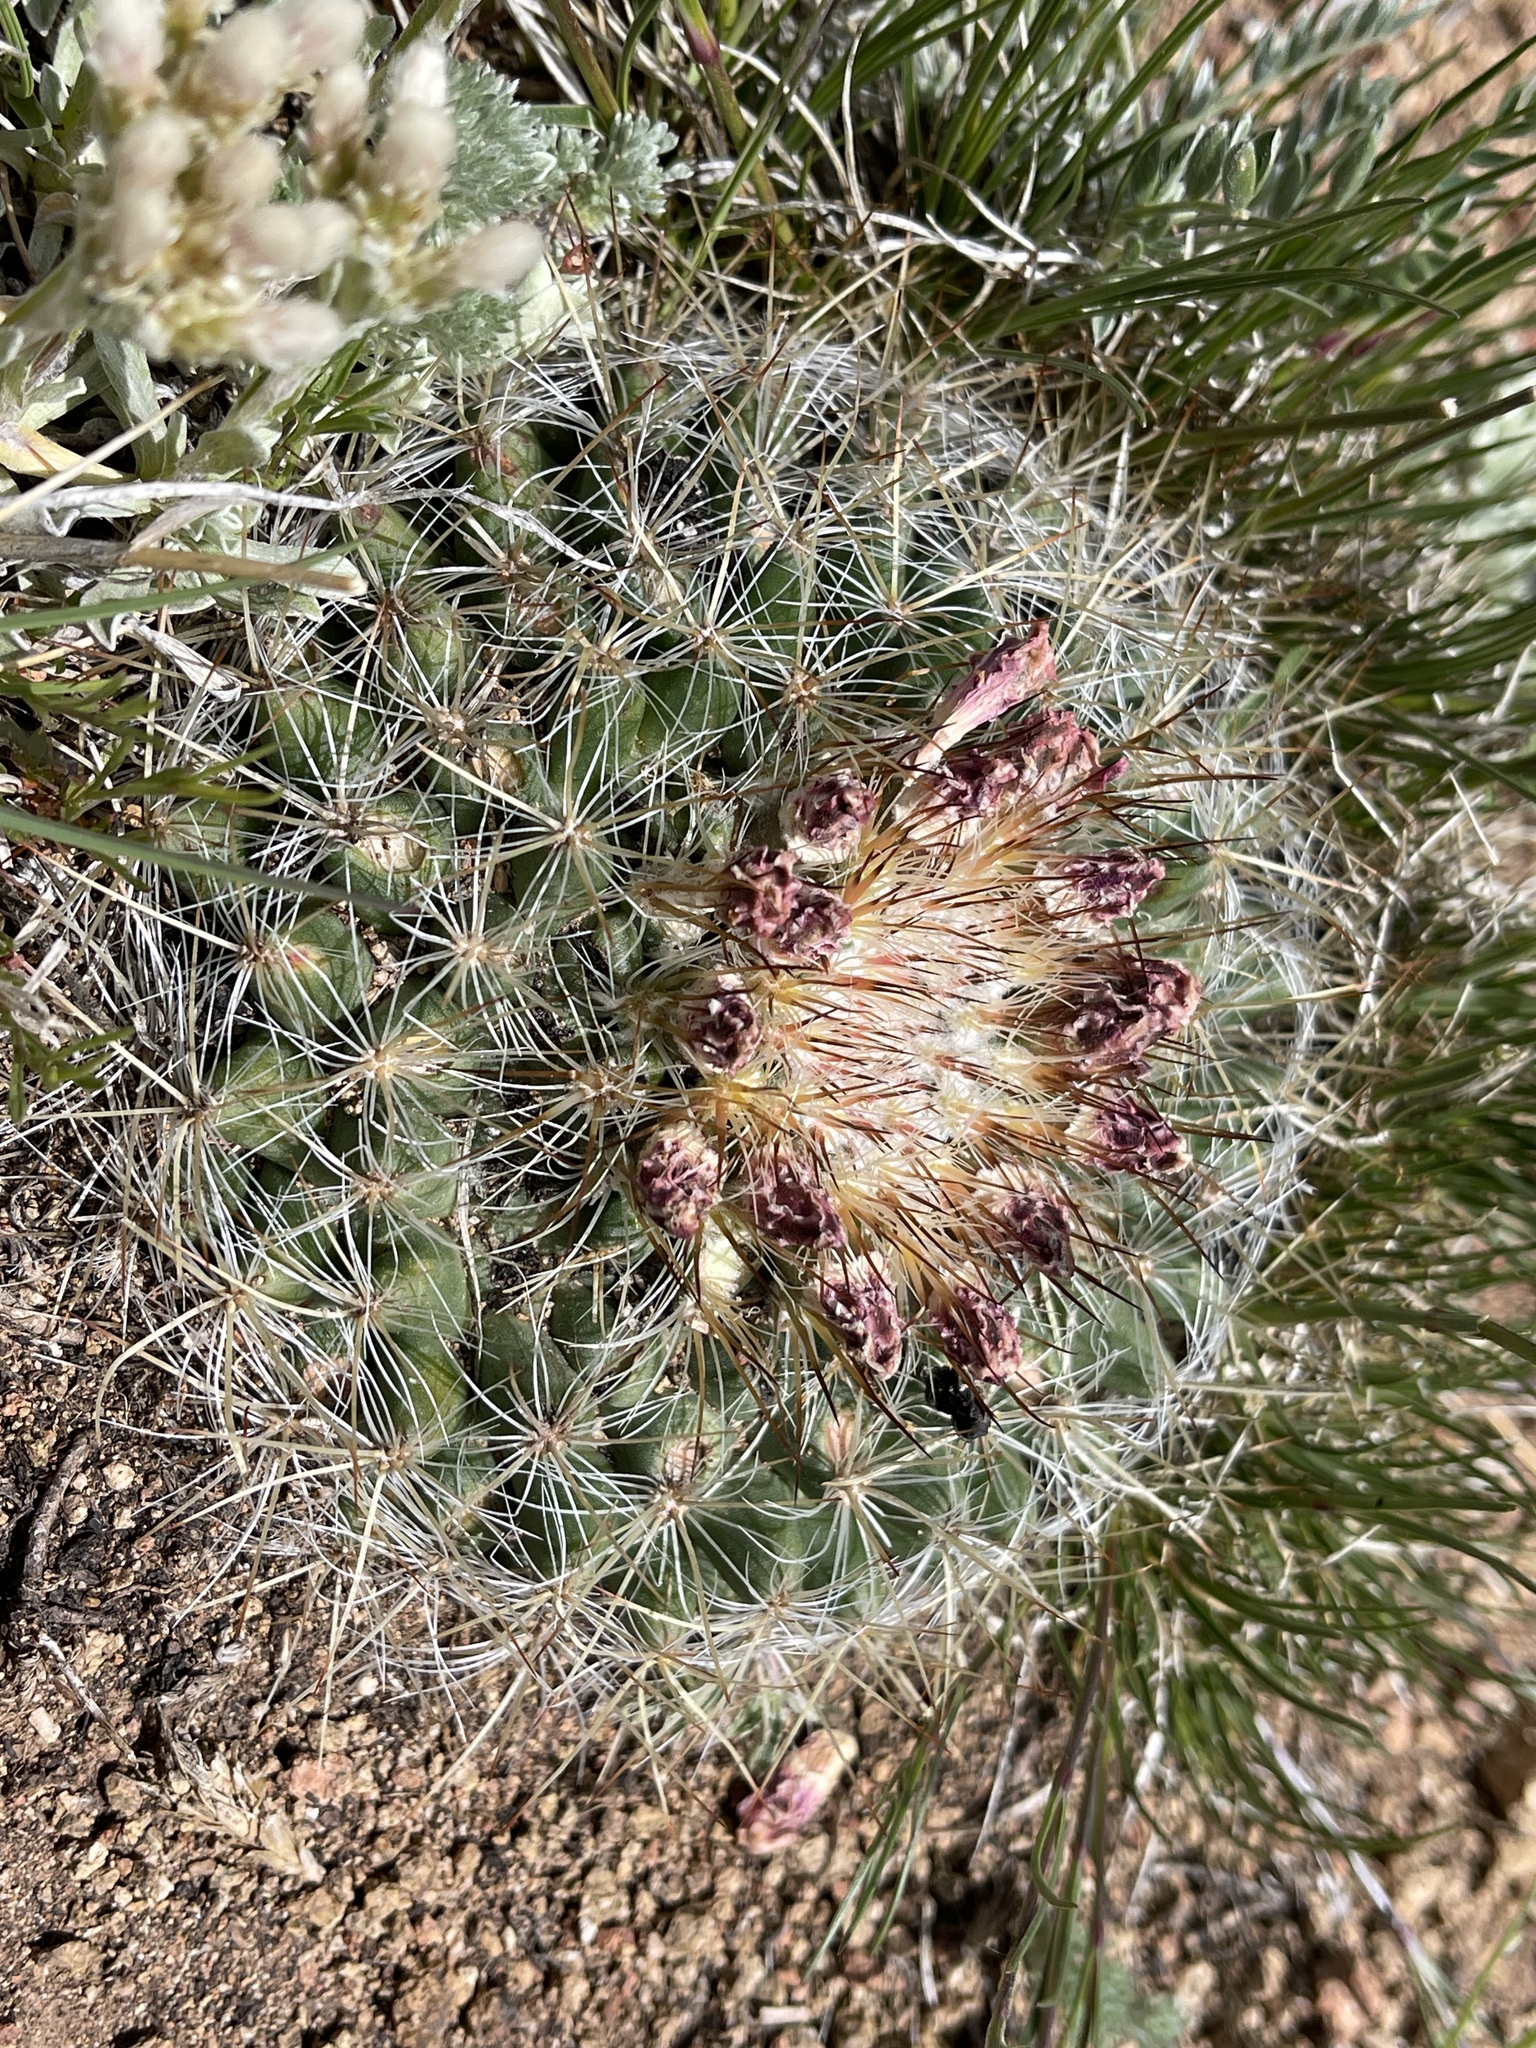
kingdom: Plantae
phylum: Tracheophyta
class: Magnoliopsida
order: Caryophyllales
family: Cactaceae
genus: Pediocactus
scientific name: Pediocactus simpsonii
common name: Simpson's hedgehog cactus
